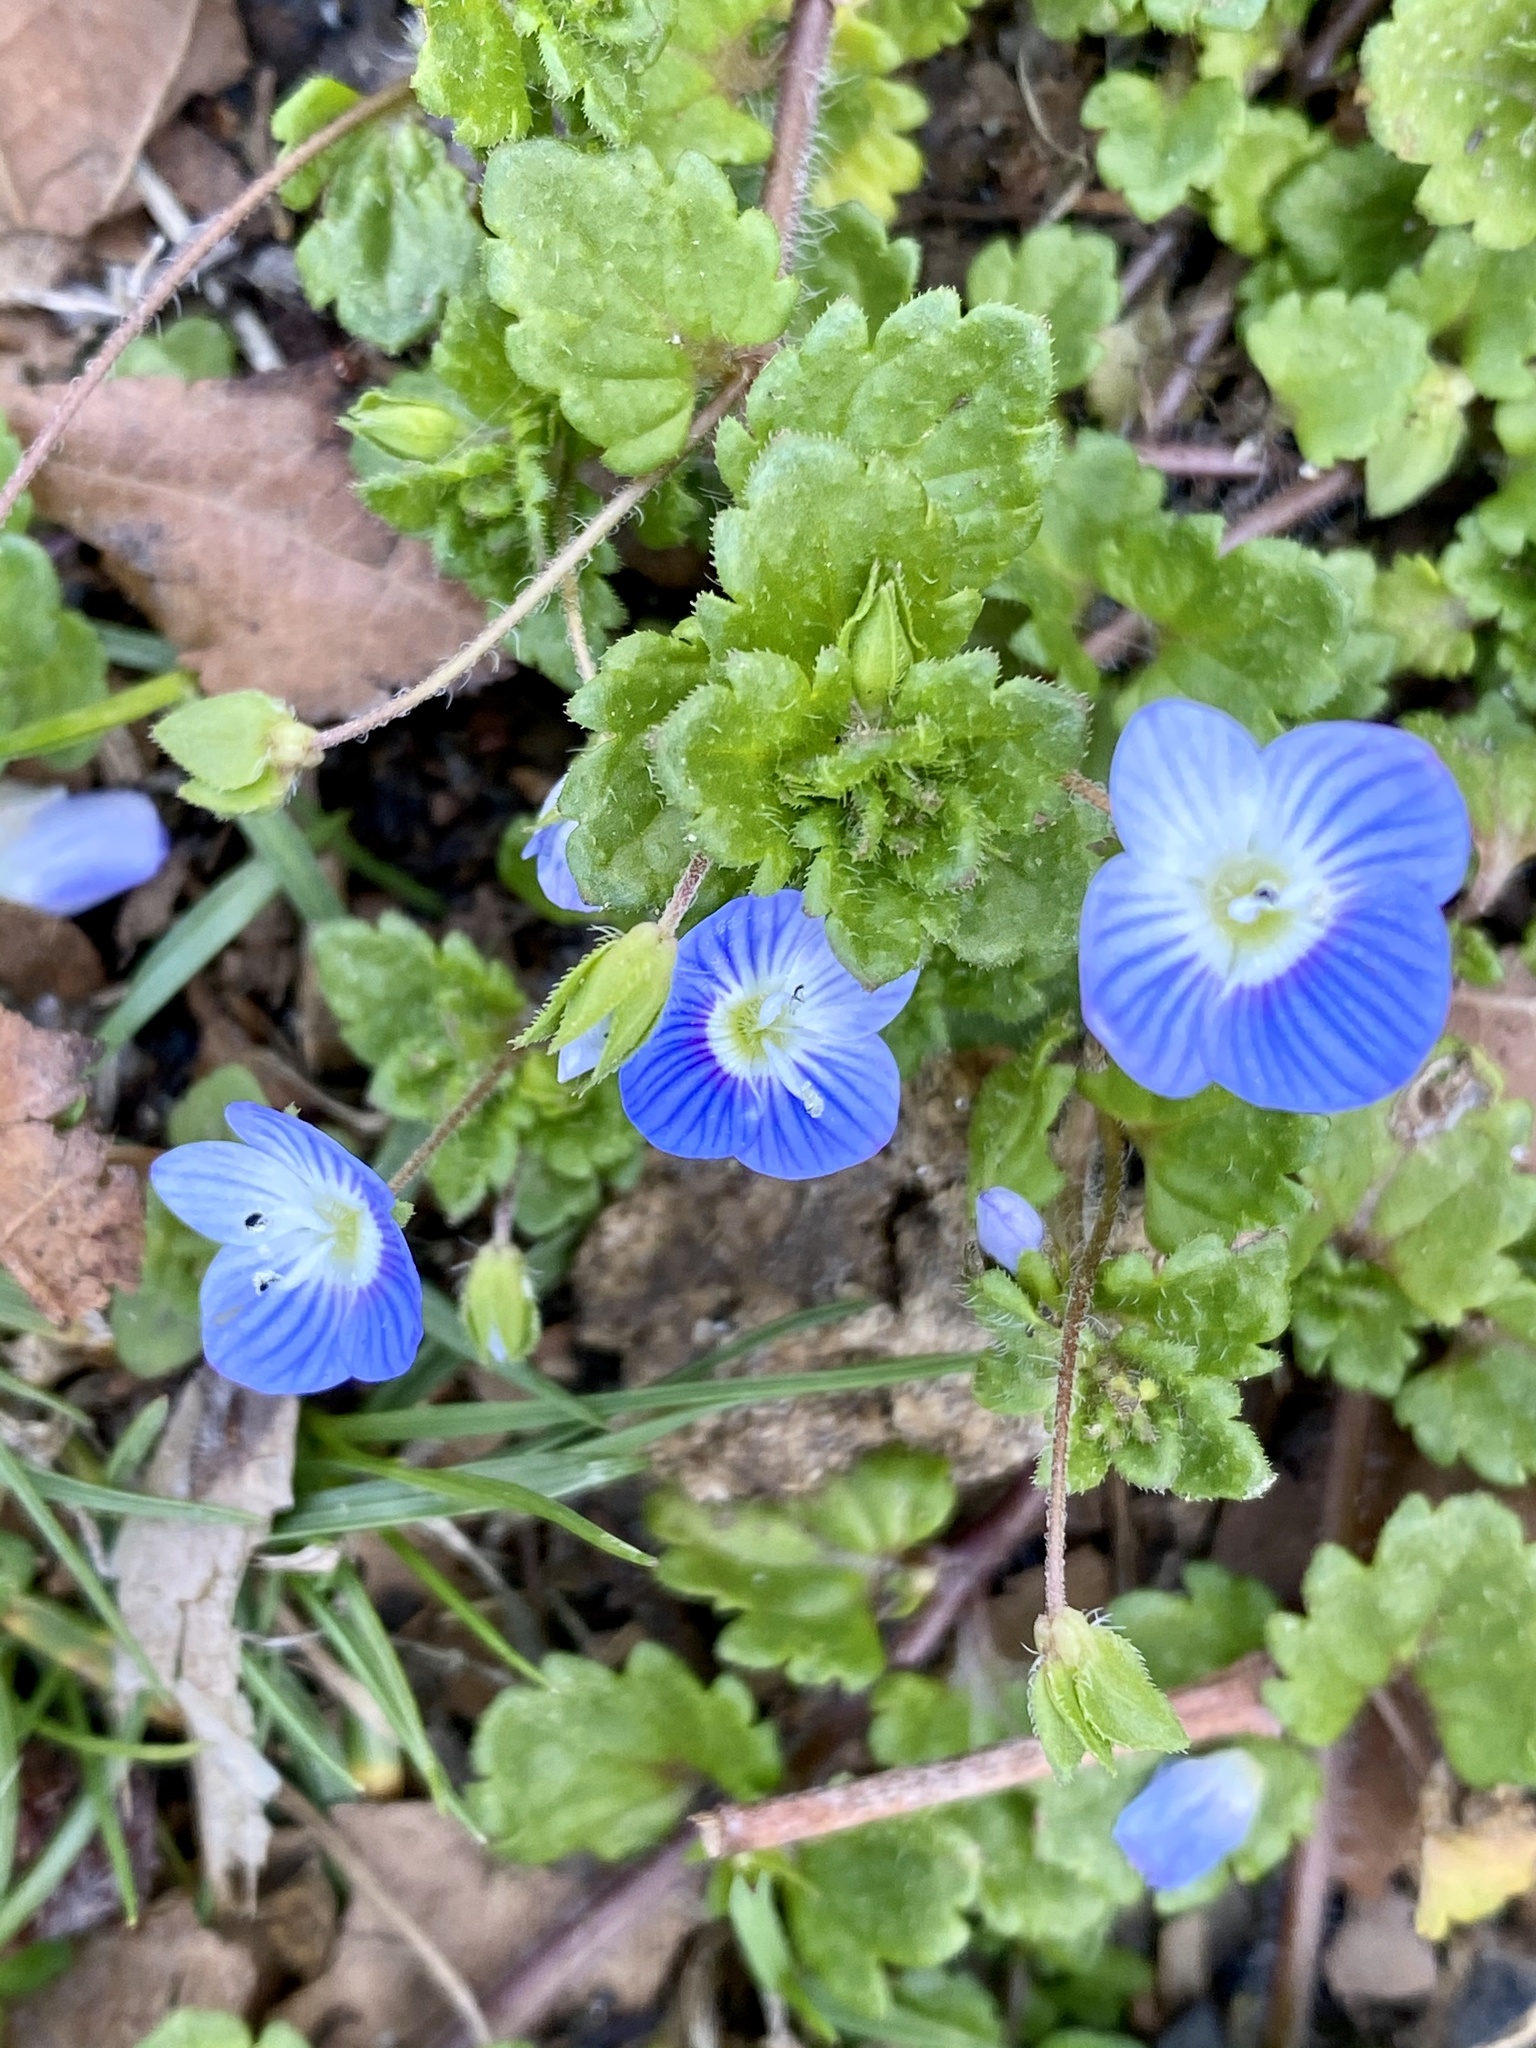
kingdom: Plantae
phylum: Tracheophyta
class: Magnoliopsida
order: Lamiales
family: Plantaginaceae
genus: Veronica
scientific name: Veronica persica
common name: Common field-speedwell
